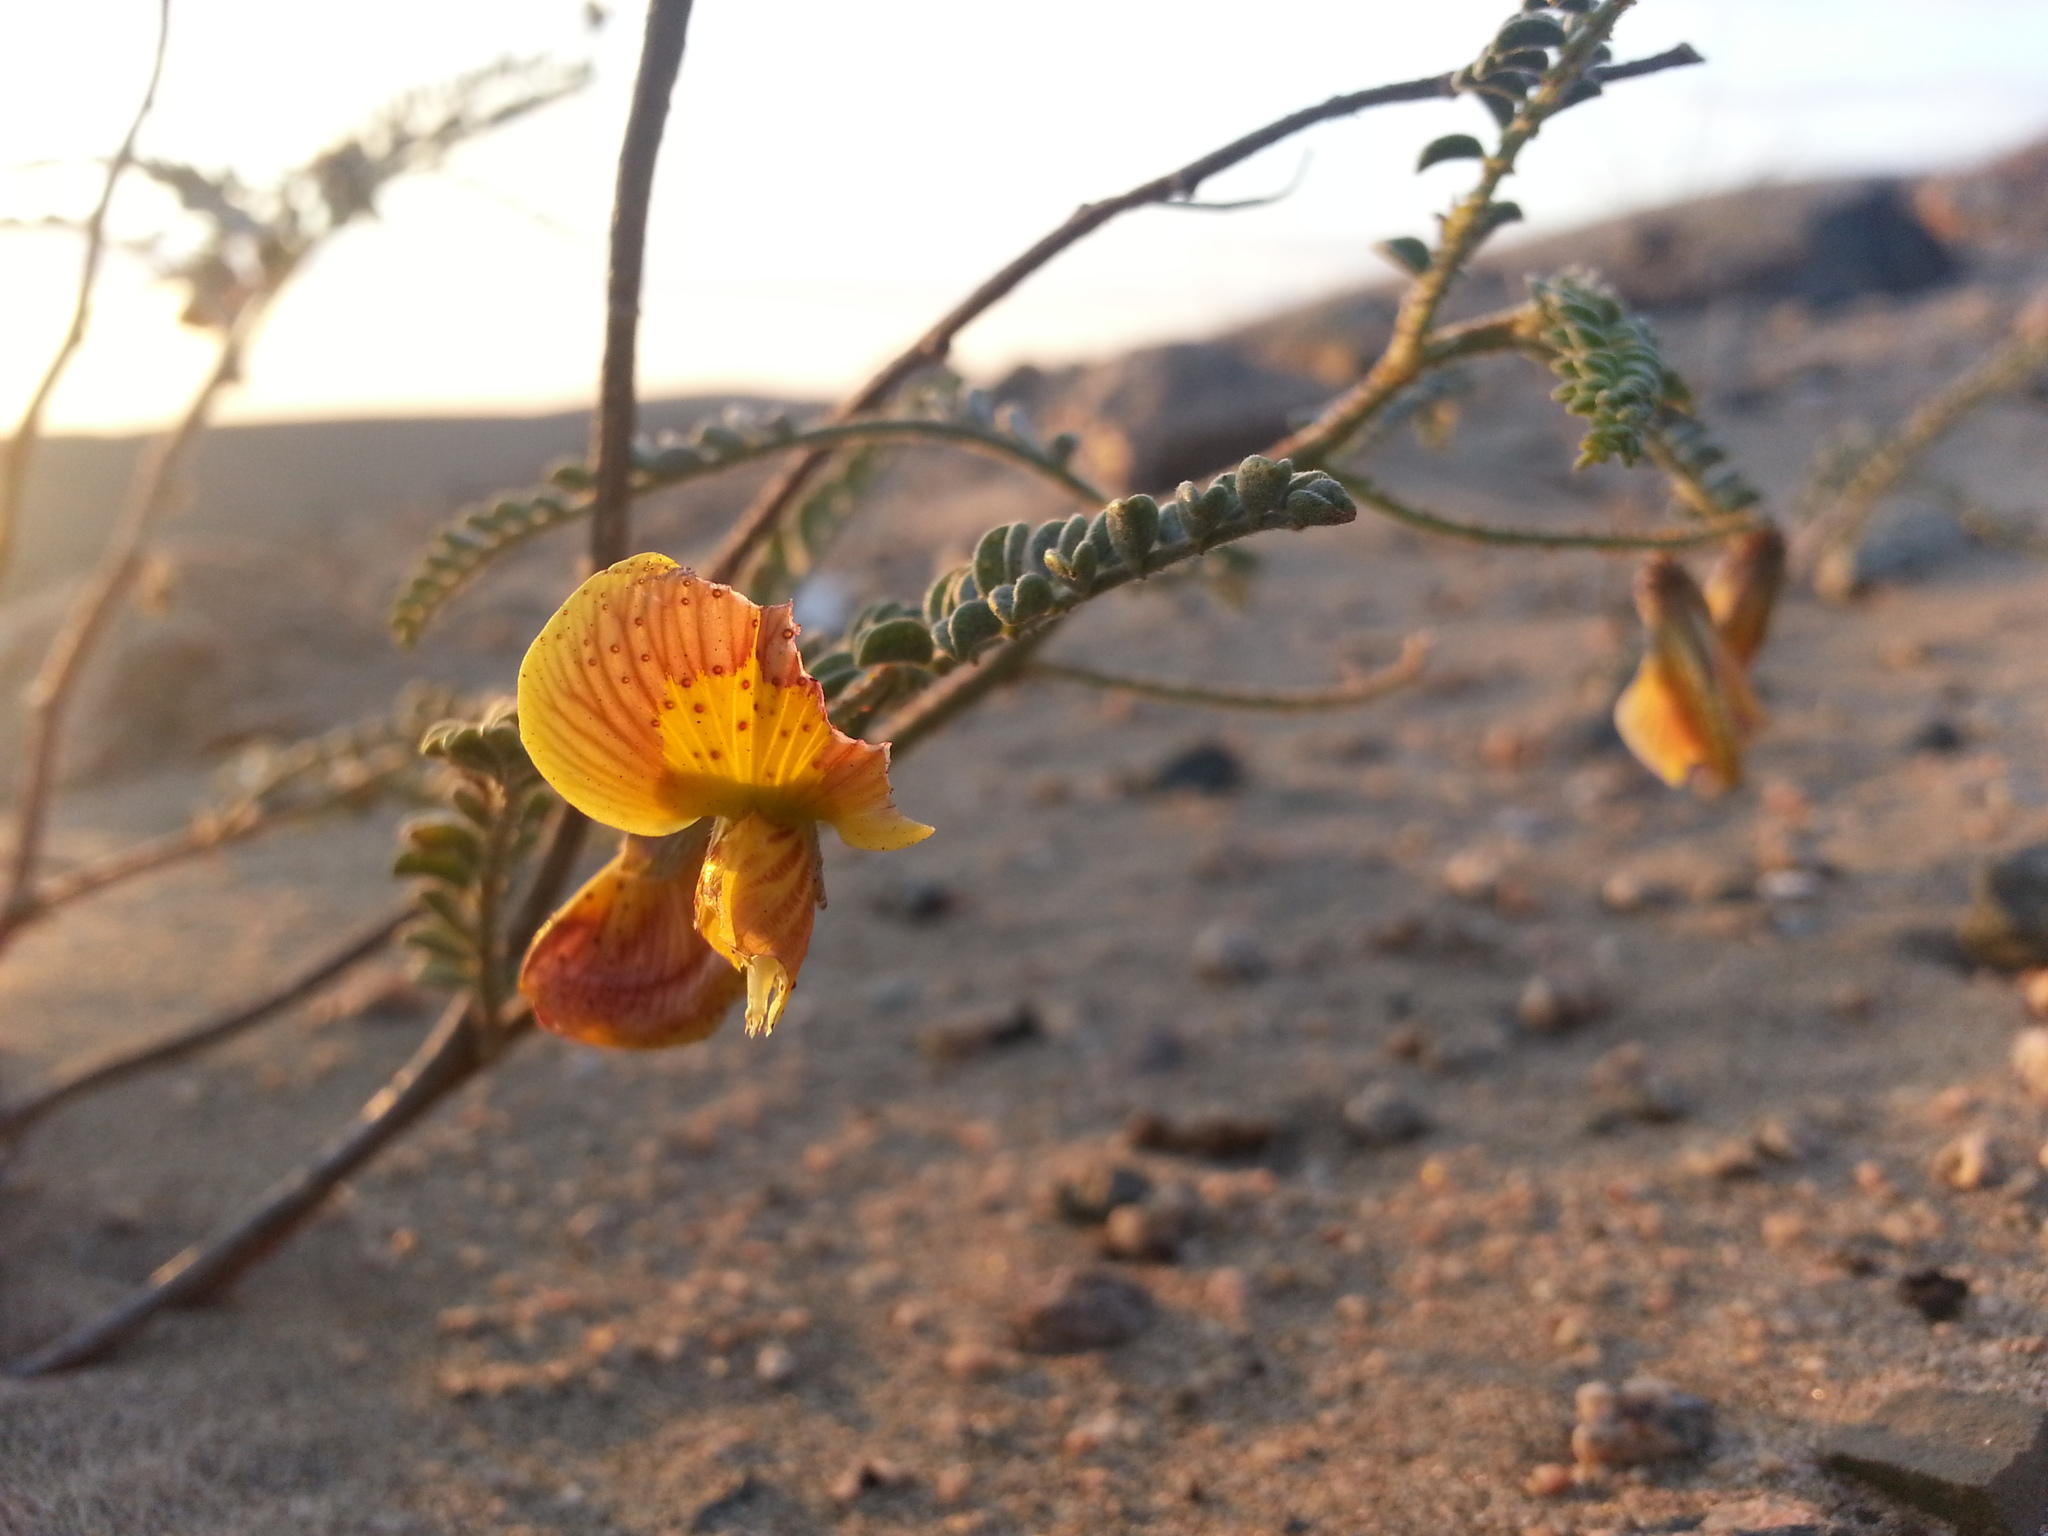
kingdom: Plantae
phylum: Tracheophyta
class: Magnoliopsida
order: Fabales
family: Fabaceae
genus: Weberbauerella
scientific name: Weberbauerella raimondiana
